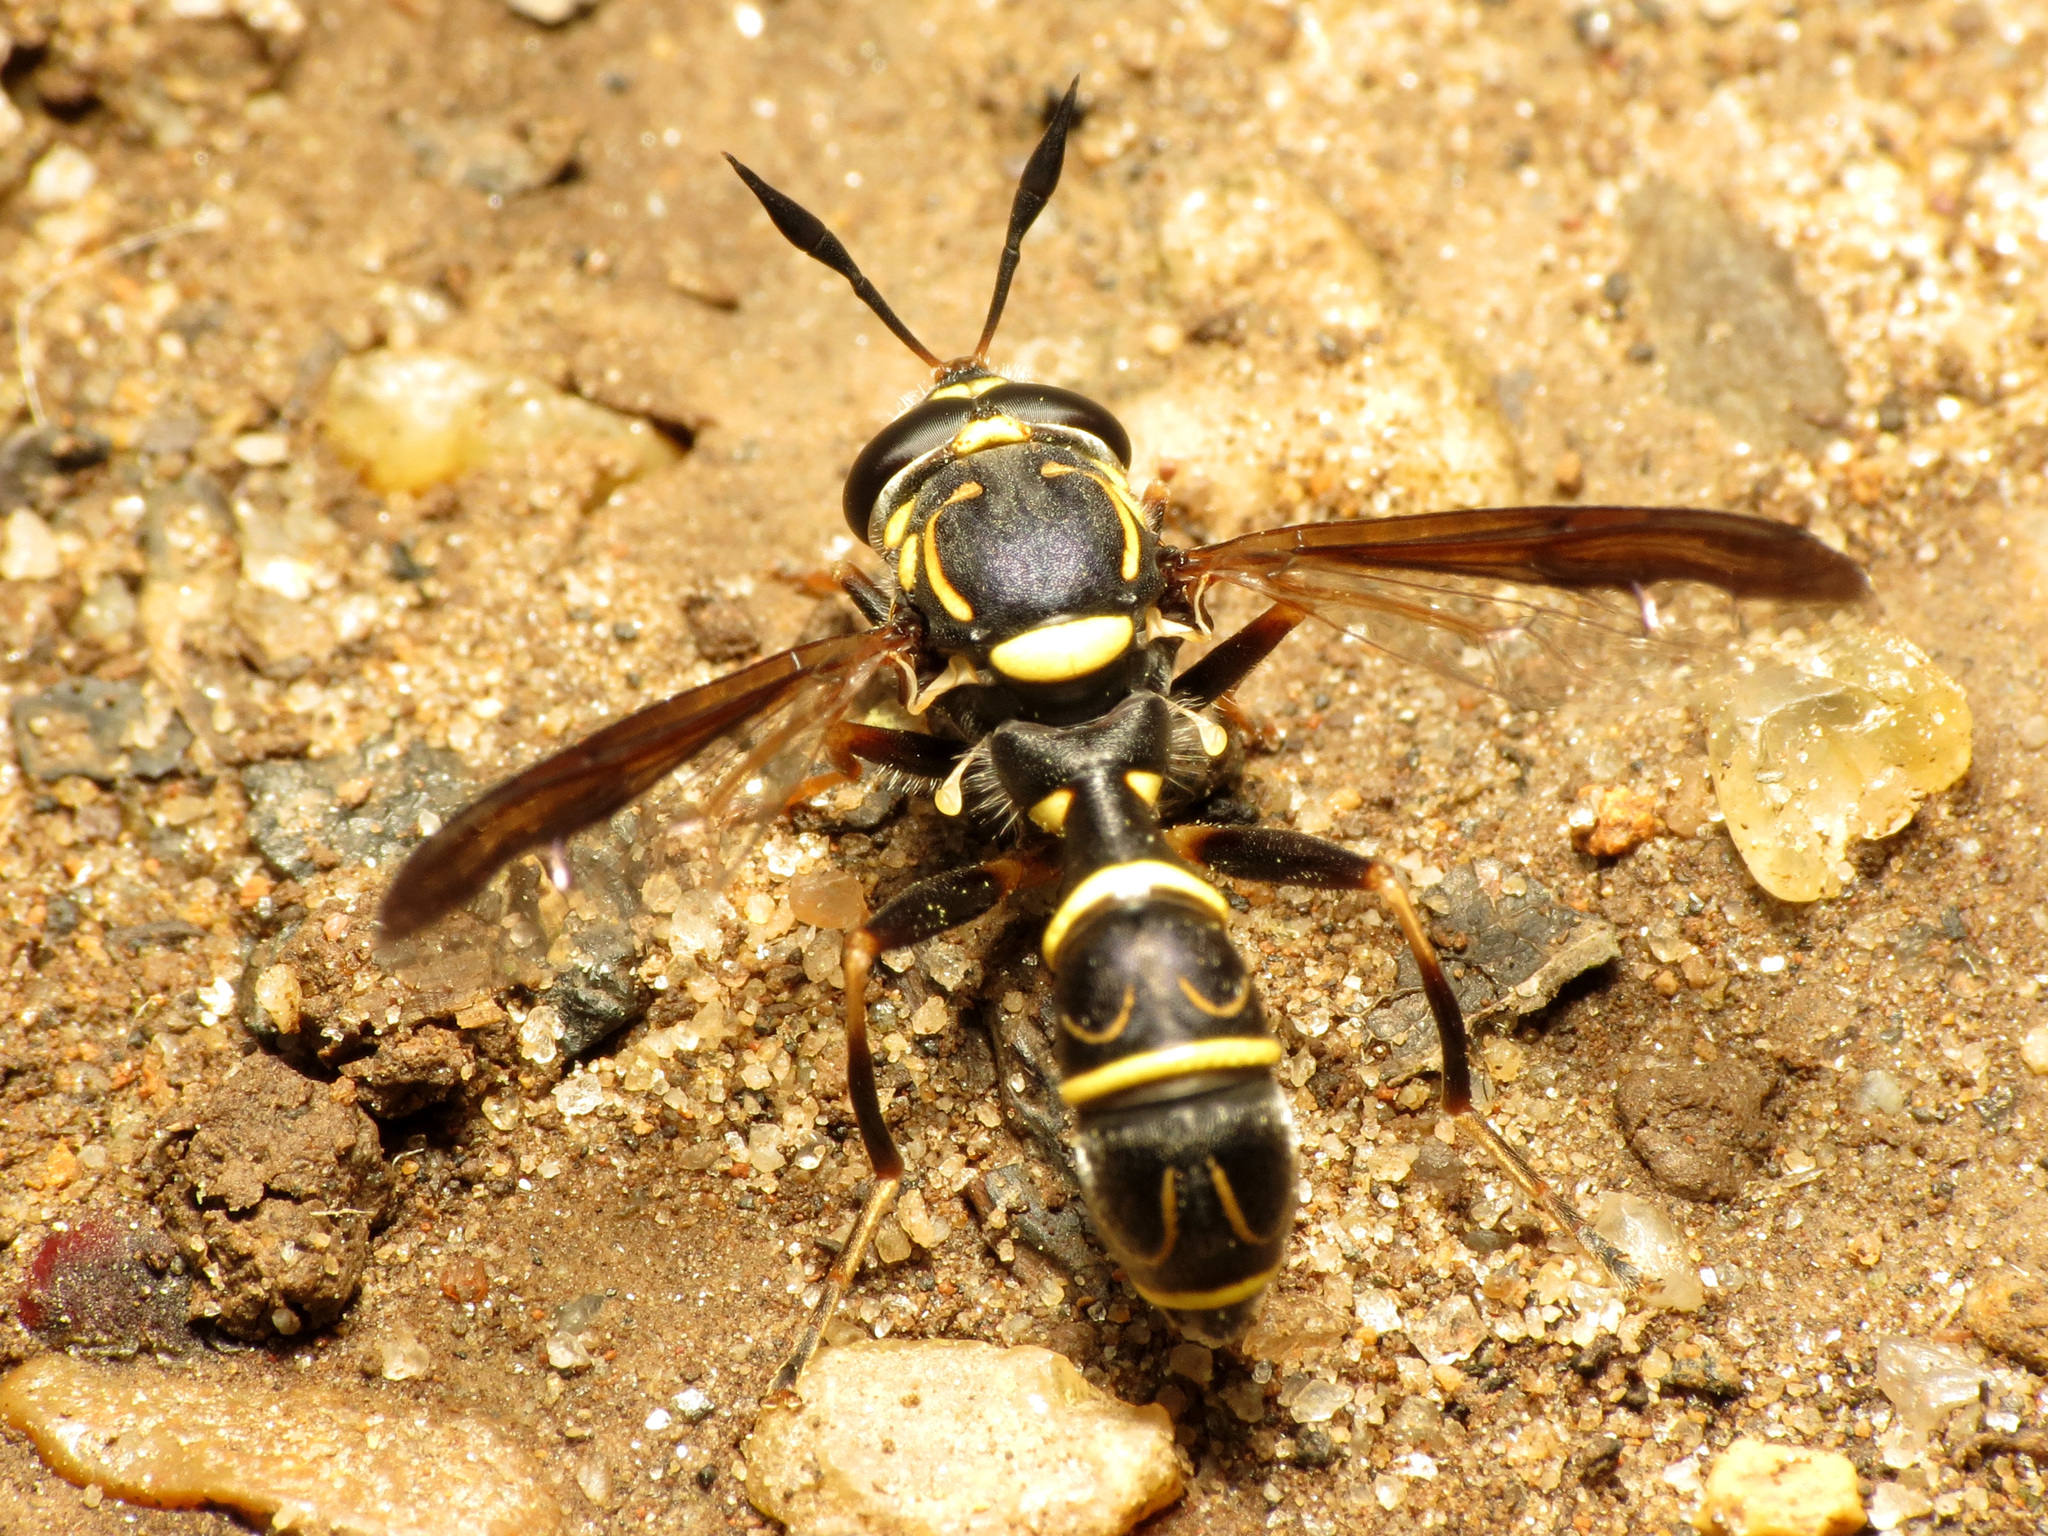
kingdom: Animalia
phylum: Arthropoda
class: Insecta
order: Diptera
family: Syrphidae
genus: Sphiximorpha
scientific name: Sphiximorpha willistoni
